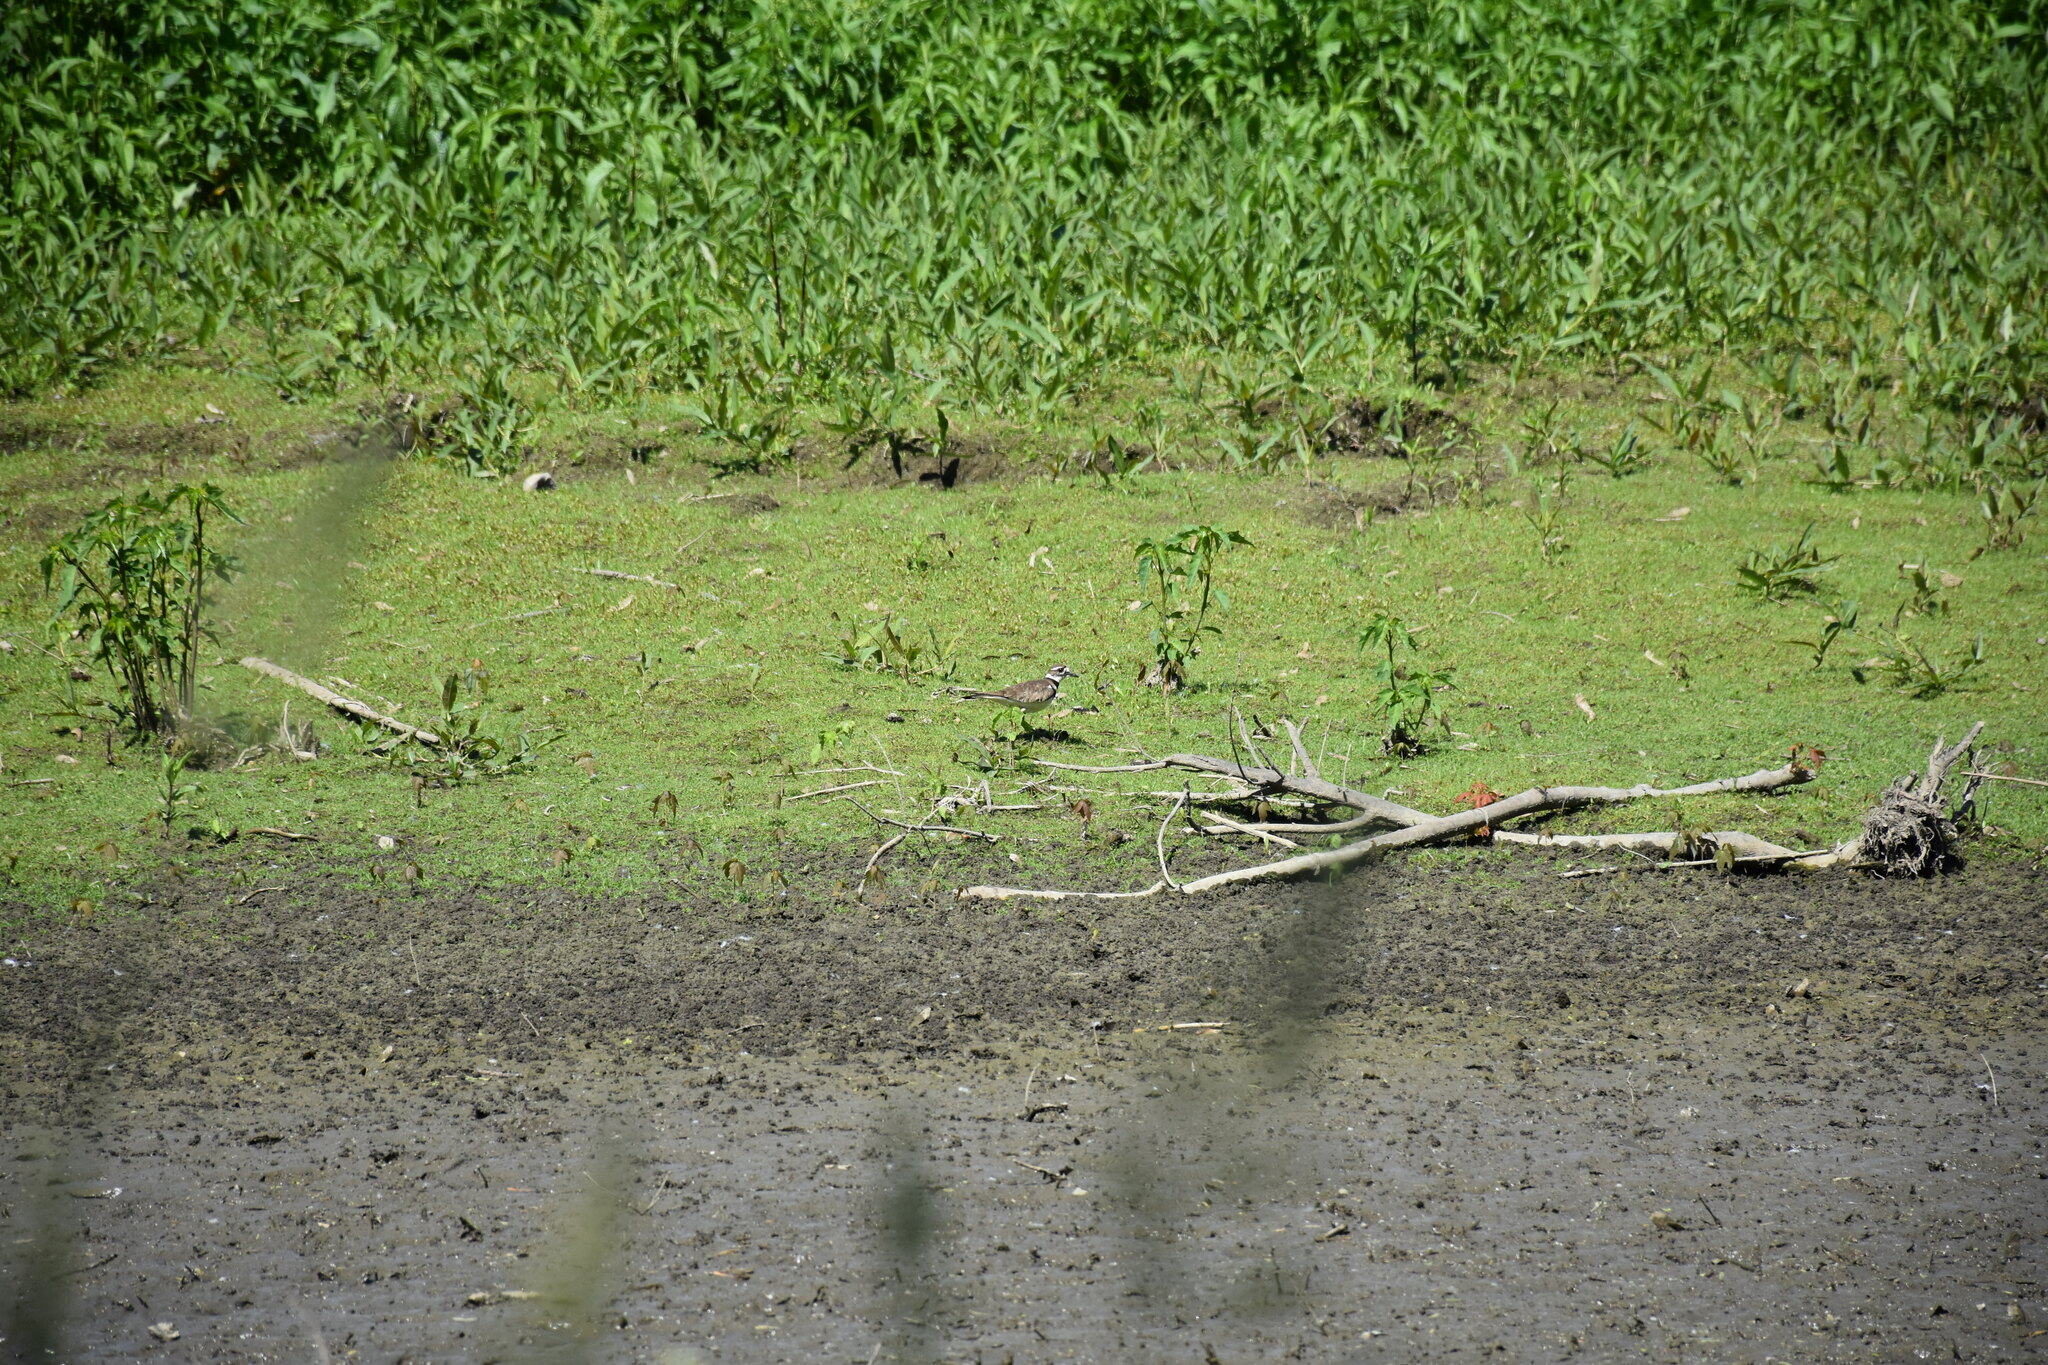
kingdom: Animalia
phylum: Chordata
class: Aves
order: Charadriiformes
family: Charadriidae
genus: Charadrius
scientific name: Charadrius vociferus
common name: Killdeer
